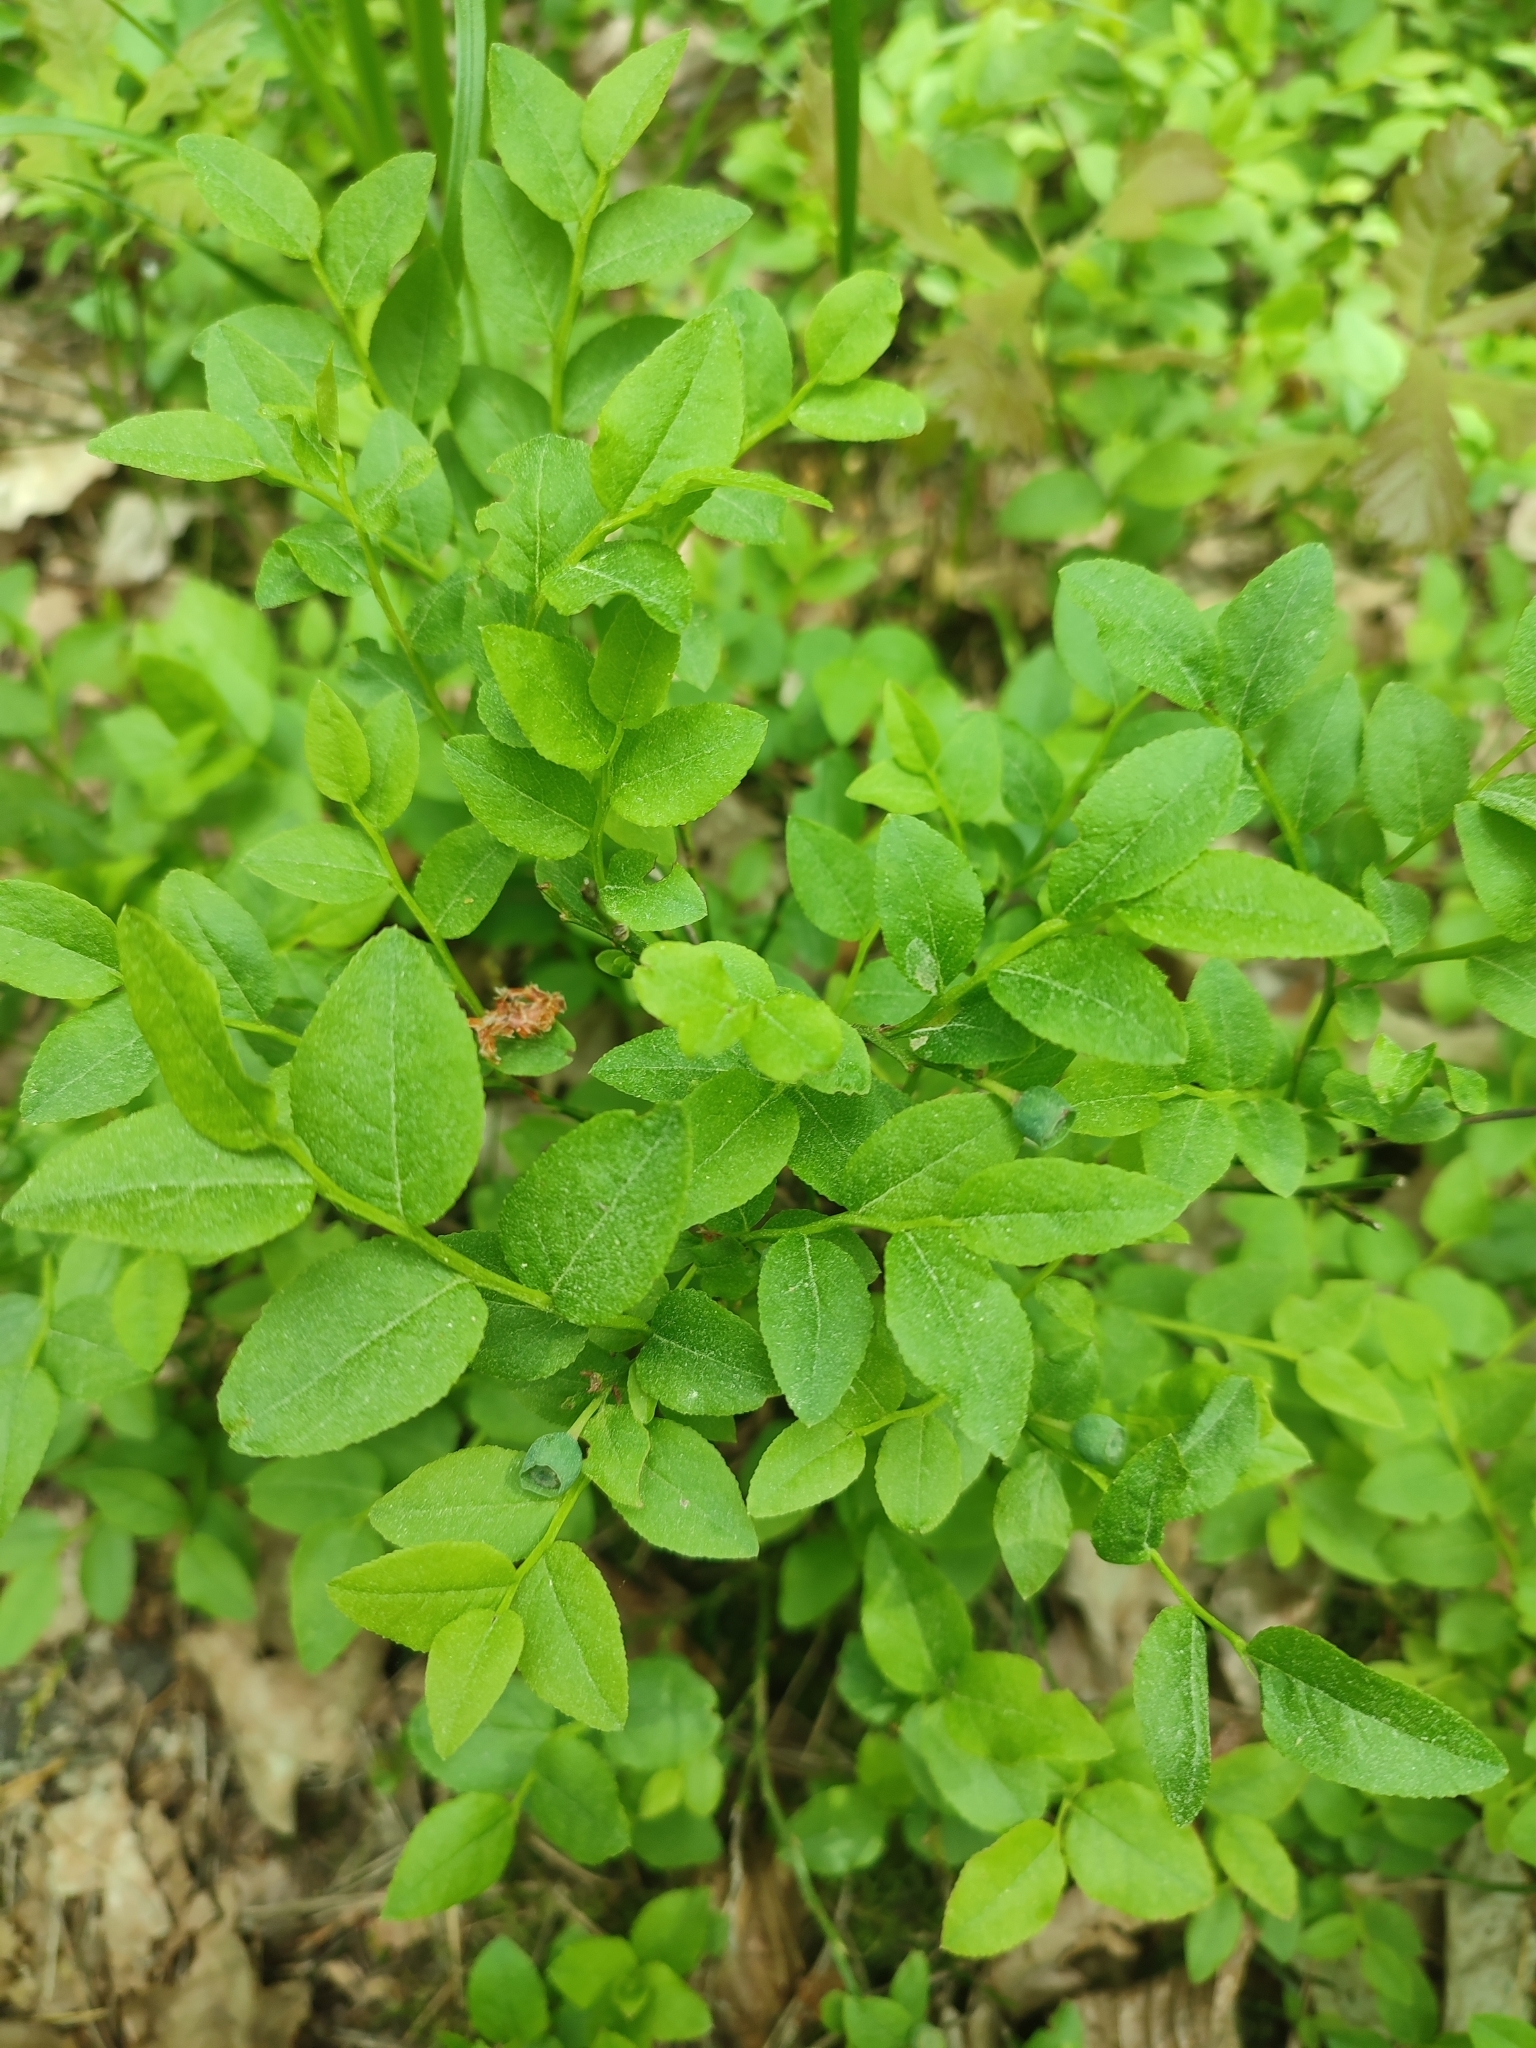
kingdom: Plantae
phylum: Tracheophyta
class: Magnoliopsida
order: Ericales
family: Ericaceae
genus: Vaccinium
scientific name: Vaccinium myrtillus
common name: Bilberry
